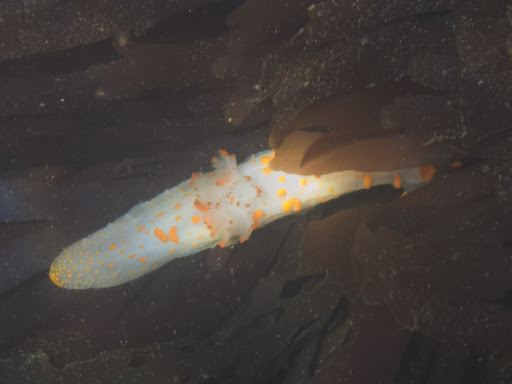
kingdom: Animalia
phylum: Mollusca
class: Gastropoda
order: Nudibranchia
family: Polyceridae
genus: Triopha
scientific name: Triopha catalinae
